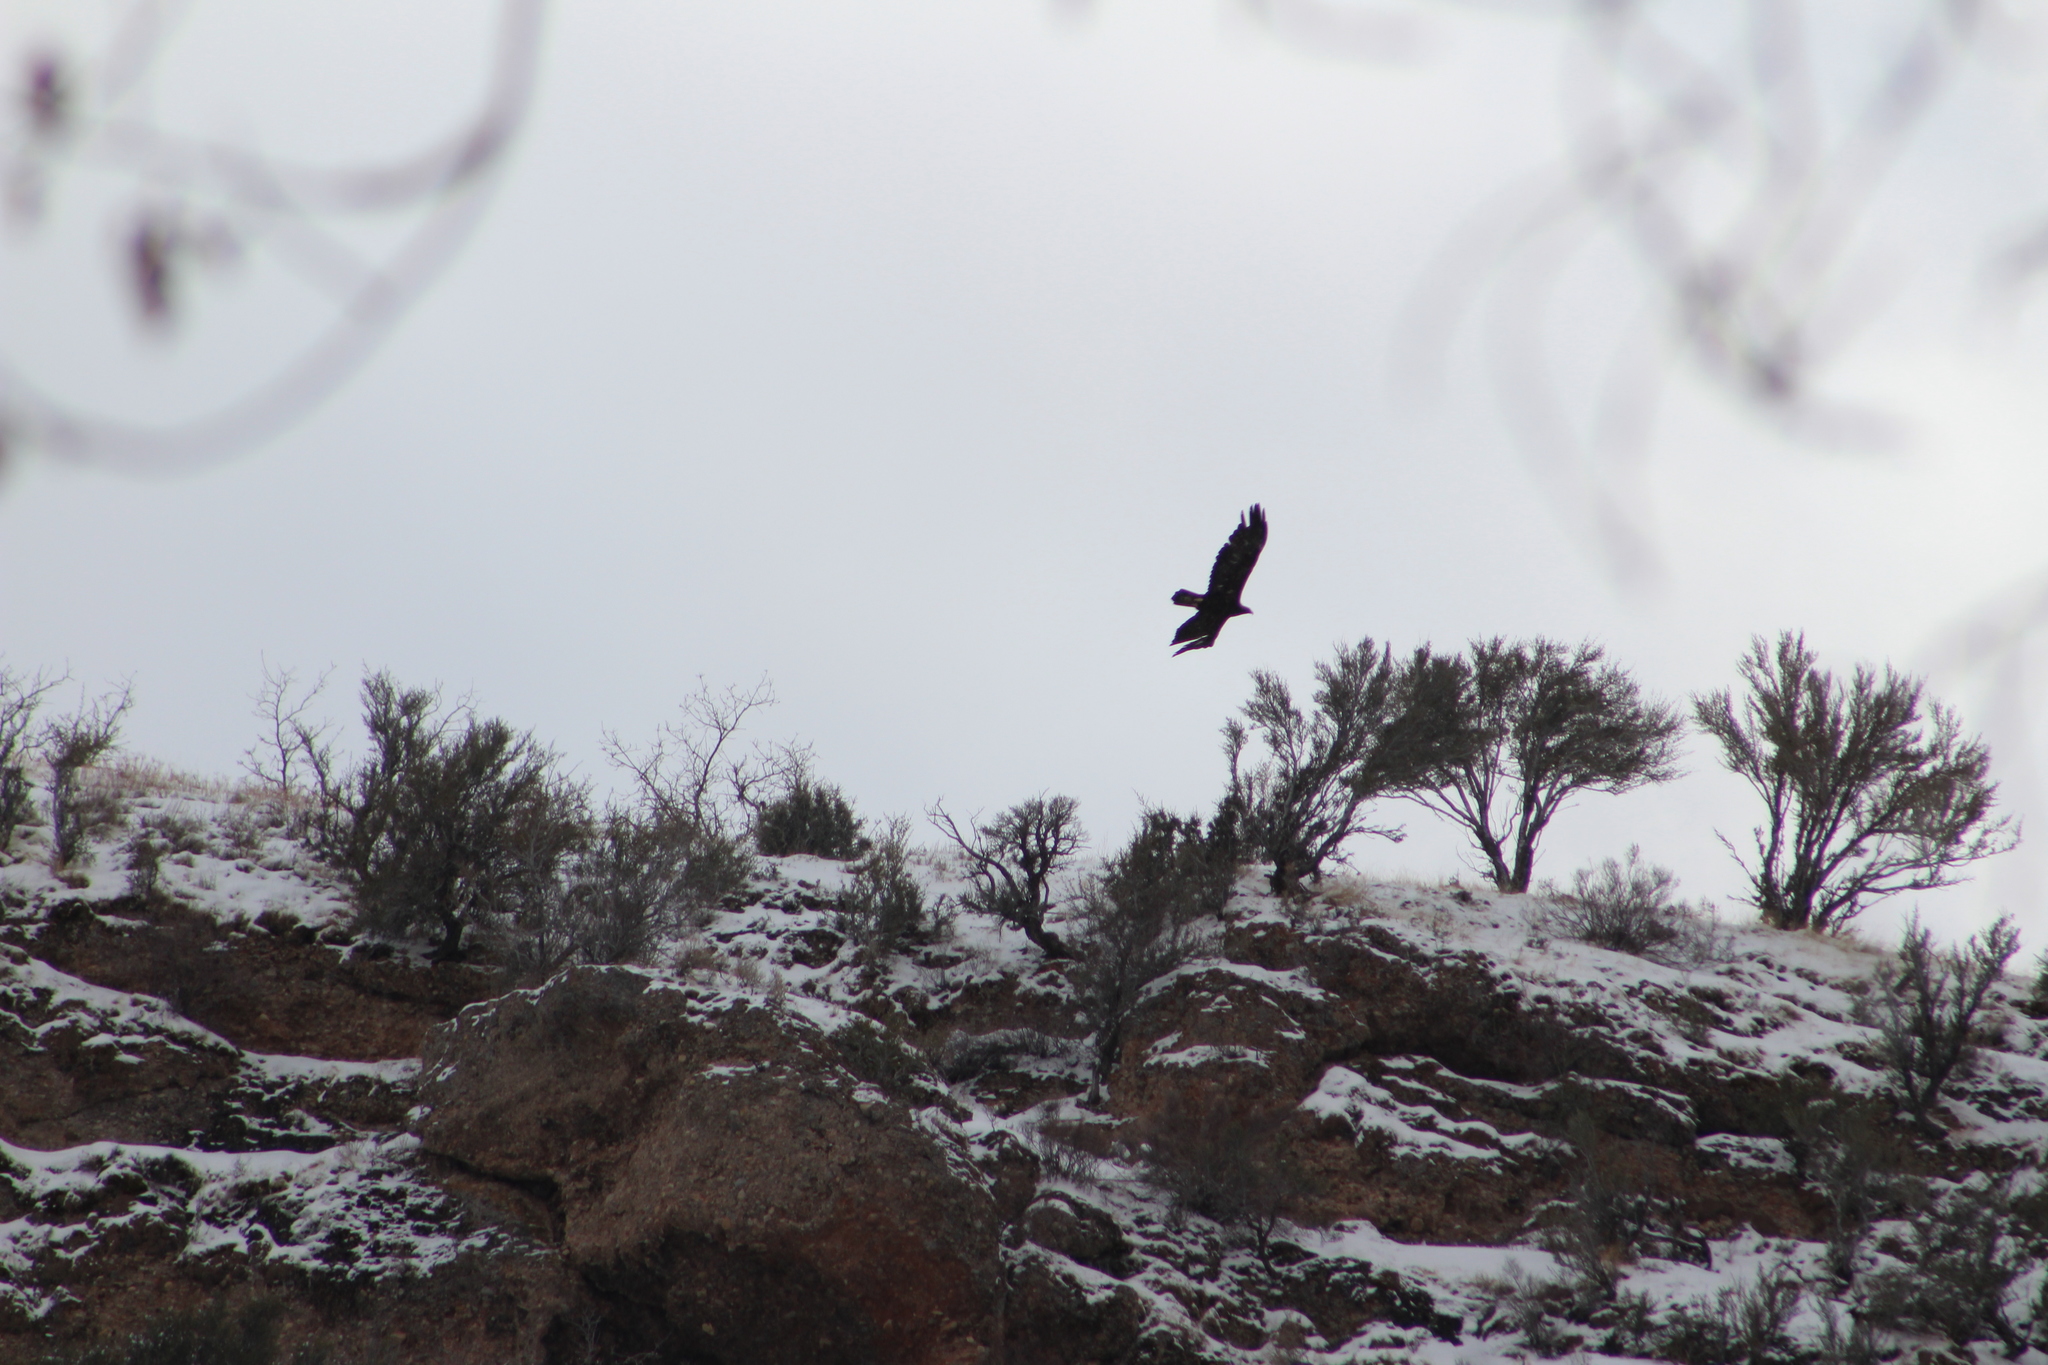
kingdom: Animalia
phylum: Chordata
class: Aves
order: Accipitriformes
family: Accipitridae
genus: Aquila
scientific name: Aquila chrysaetos
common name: Golden eagle
